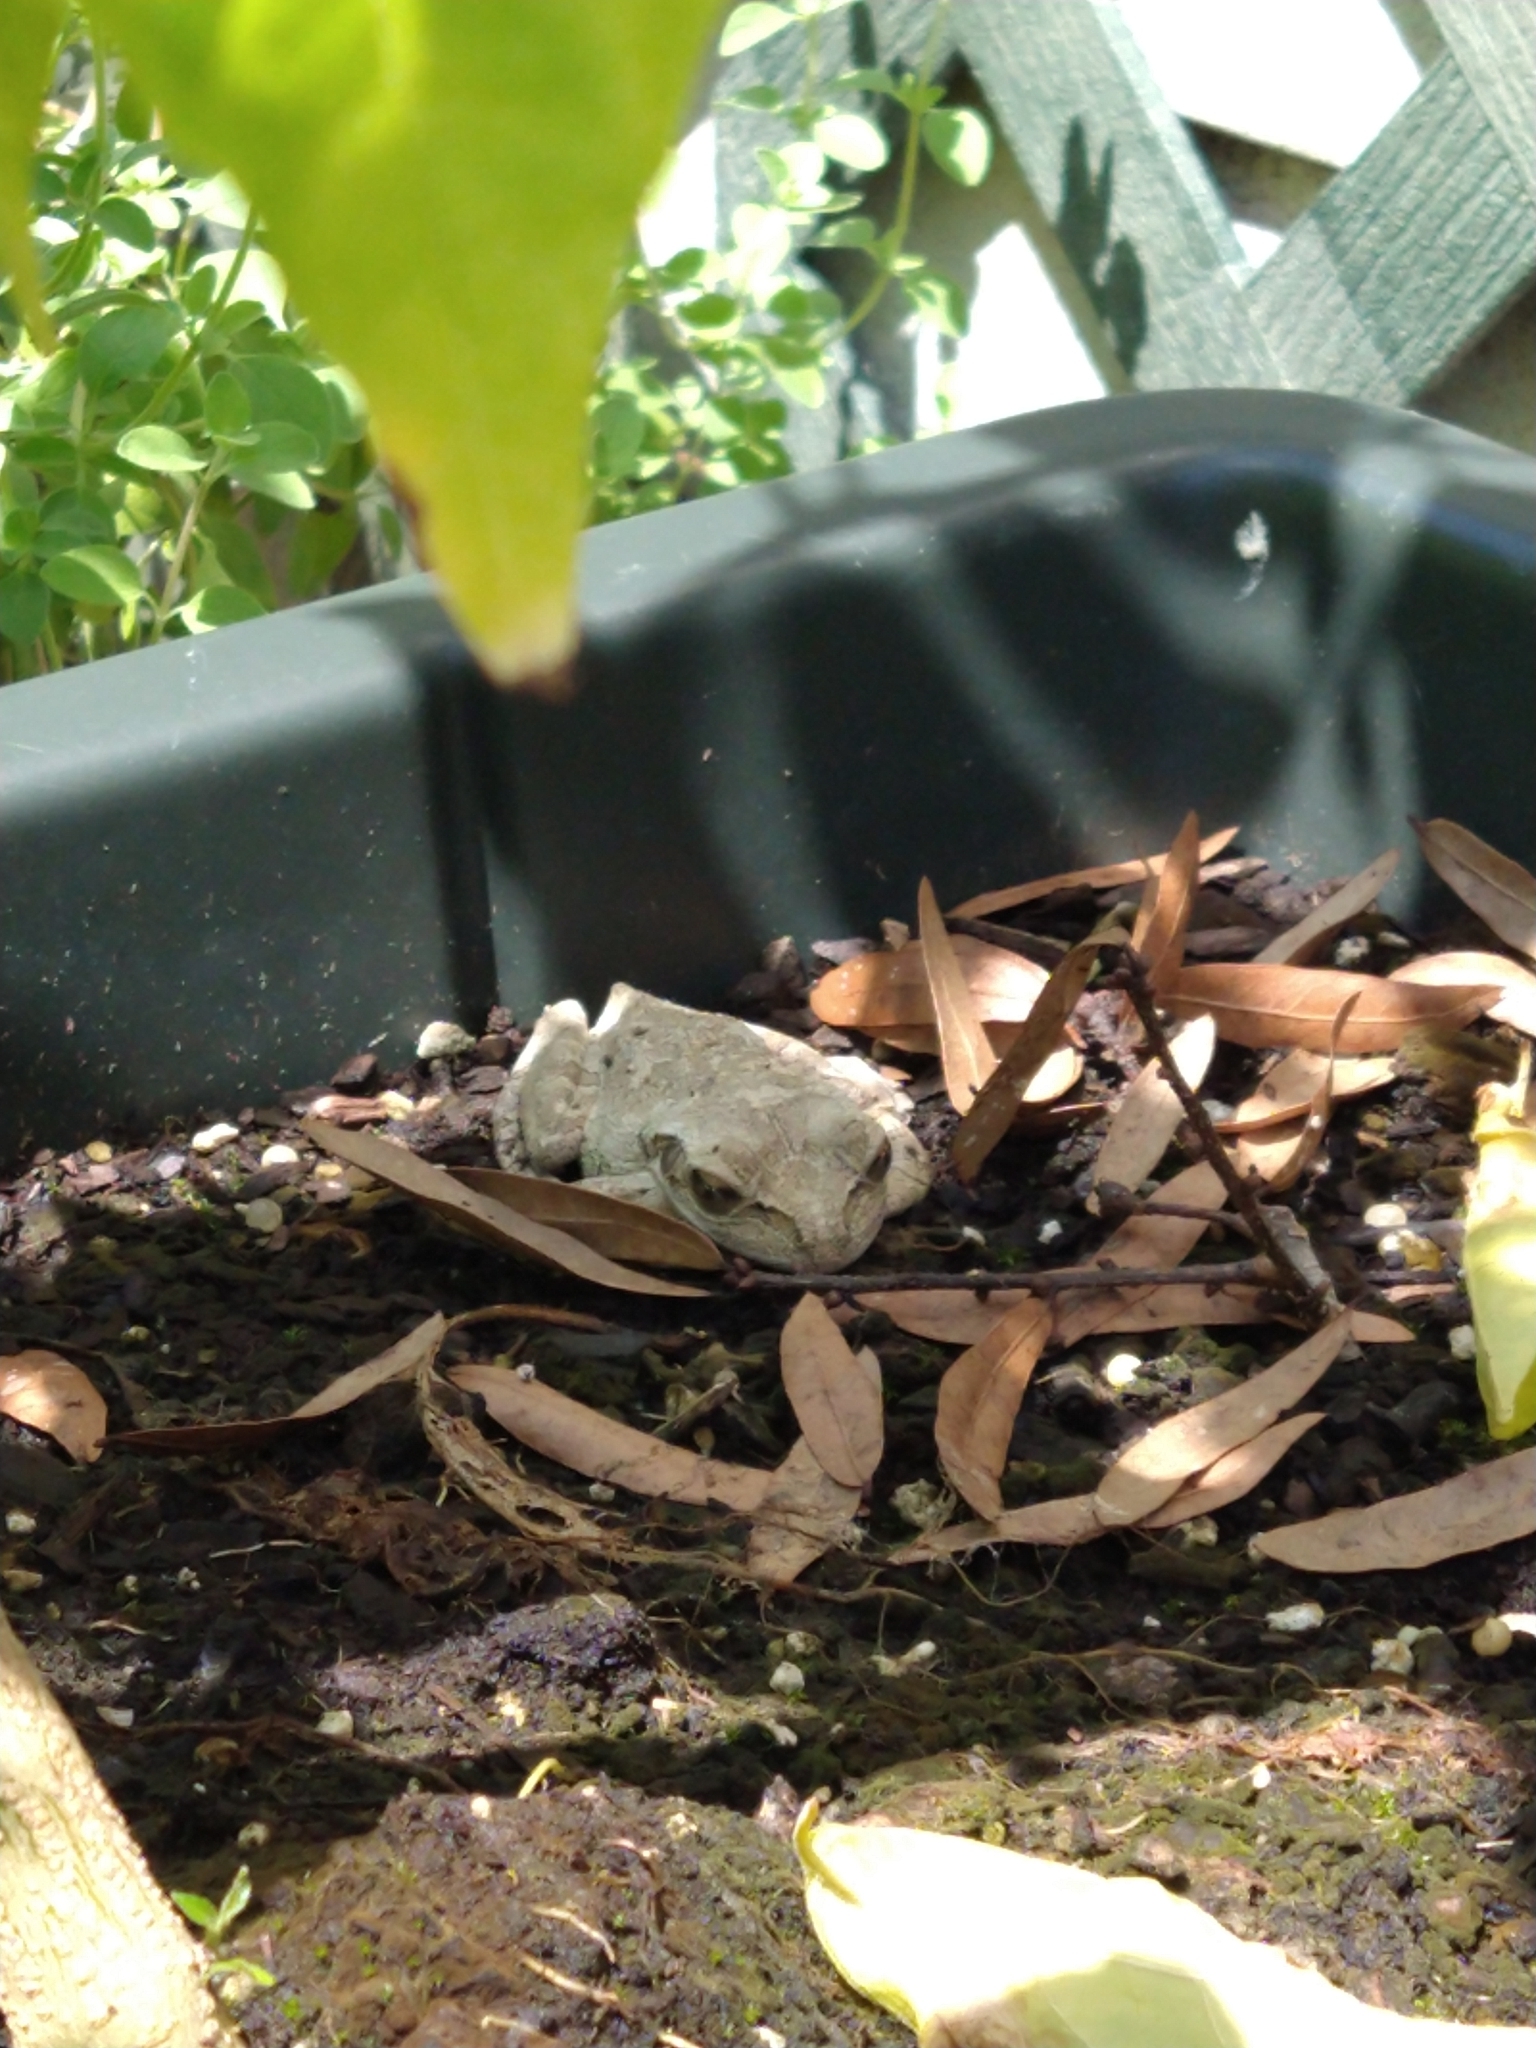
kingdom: Animalia
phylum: Chordata
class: Amphibia
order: Anura
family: Hylidae
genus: Osteopilus
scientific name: Osteopilus septentrionalis
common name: Cuban treefrog
